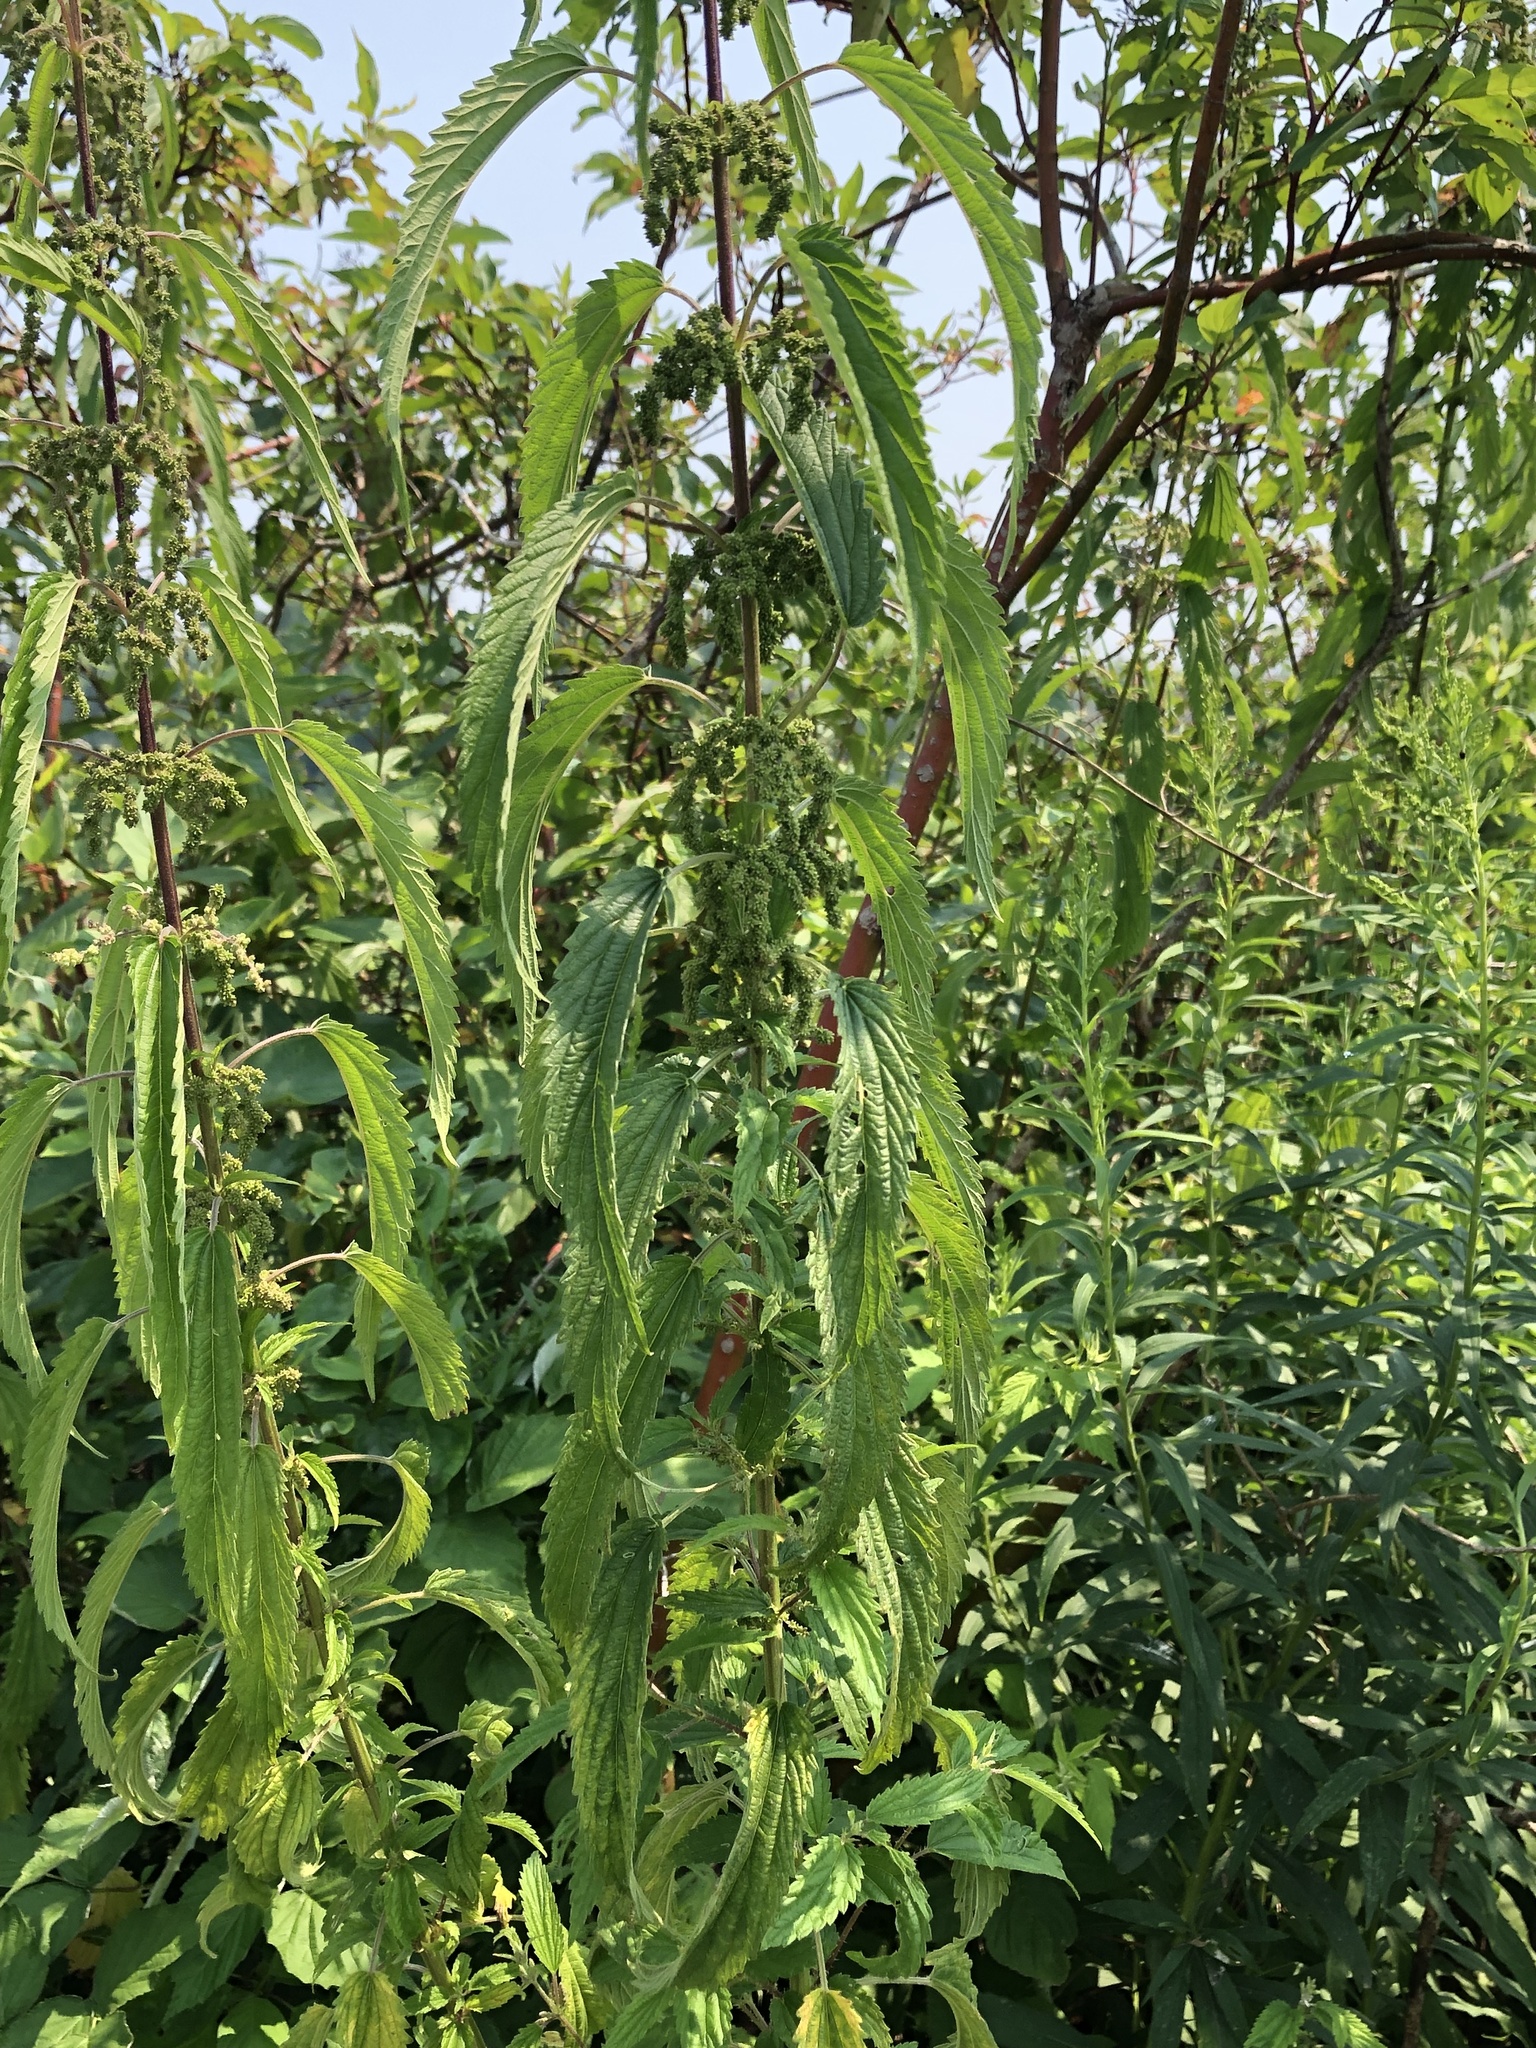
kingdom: Plantae
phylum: Tracheophyta
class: Magnoliopsida
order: Rosales
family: Urticaceae
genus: Urtica
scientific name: Urtica dioica
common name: Common nettle
